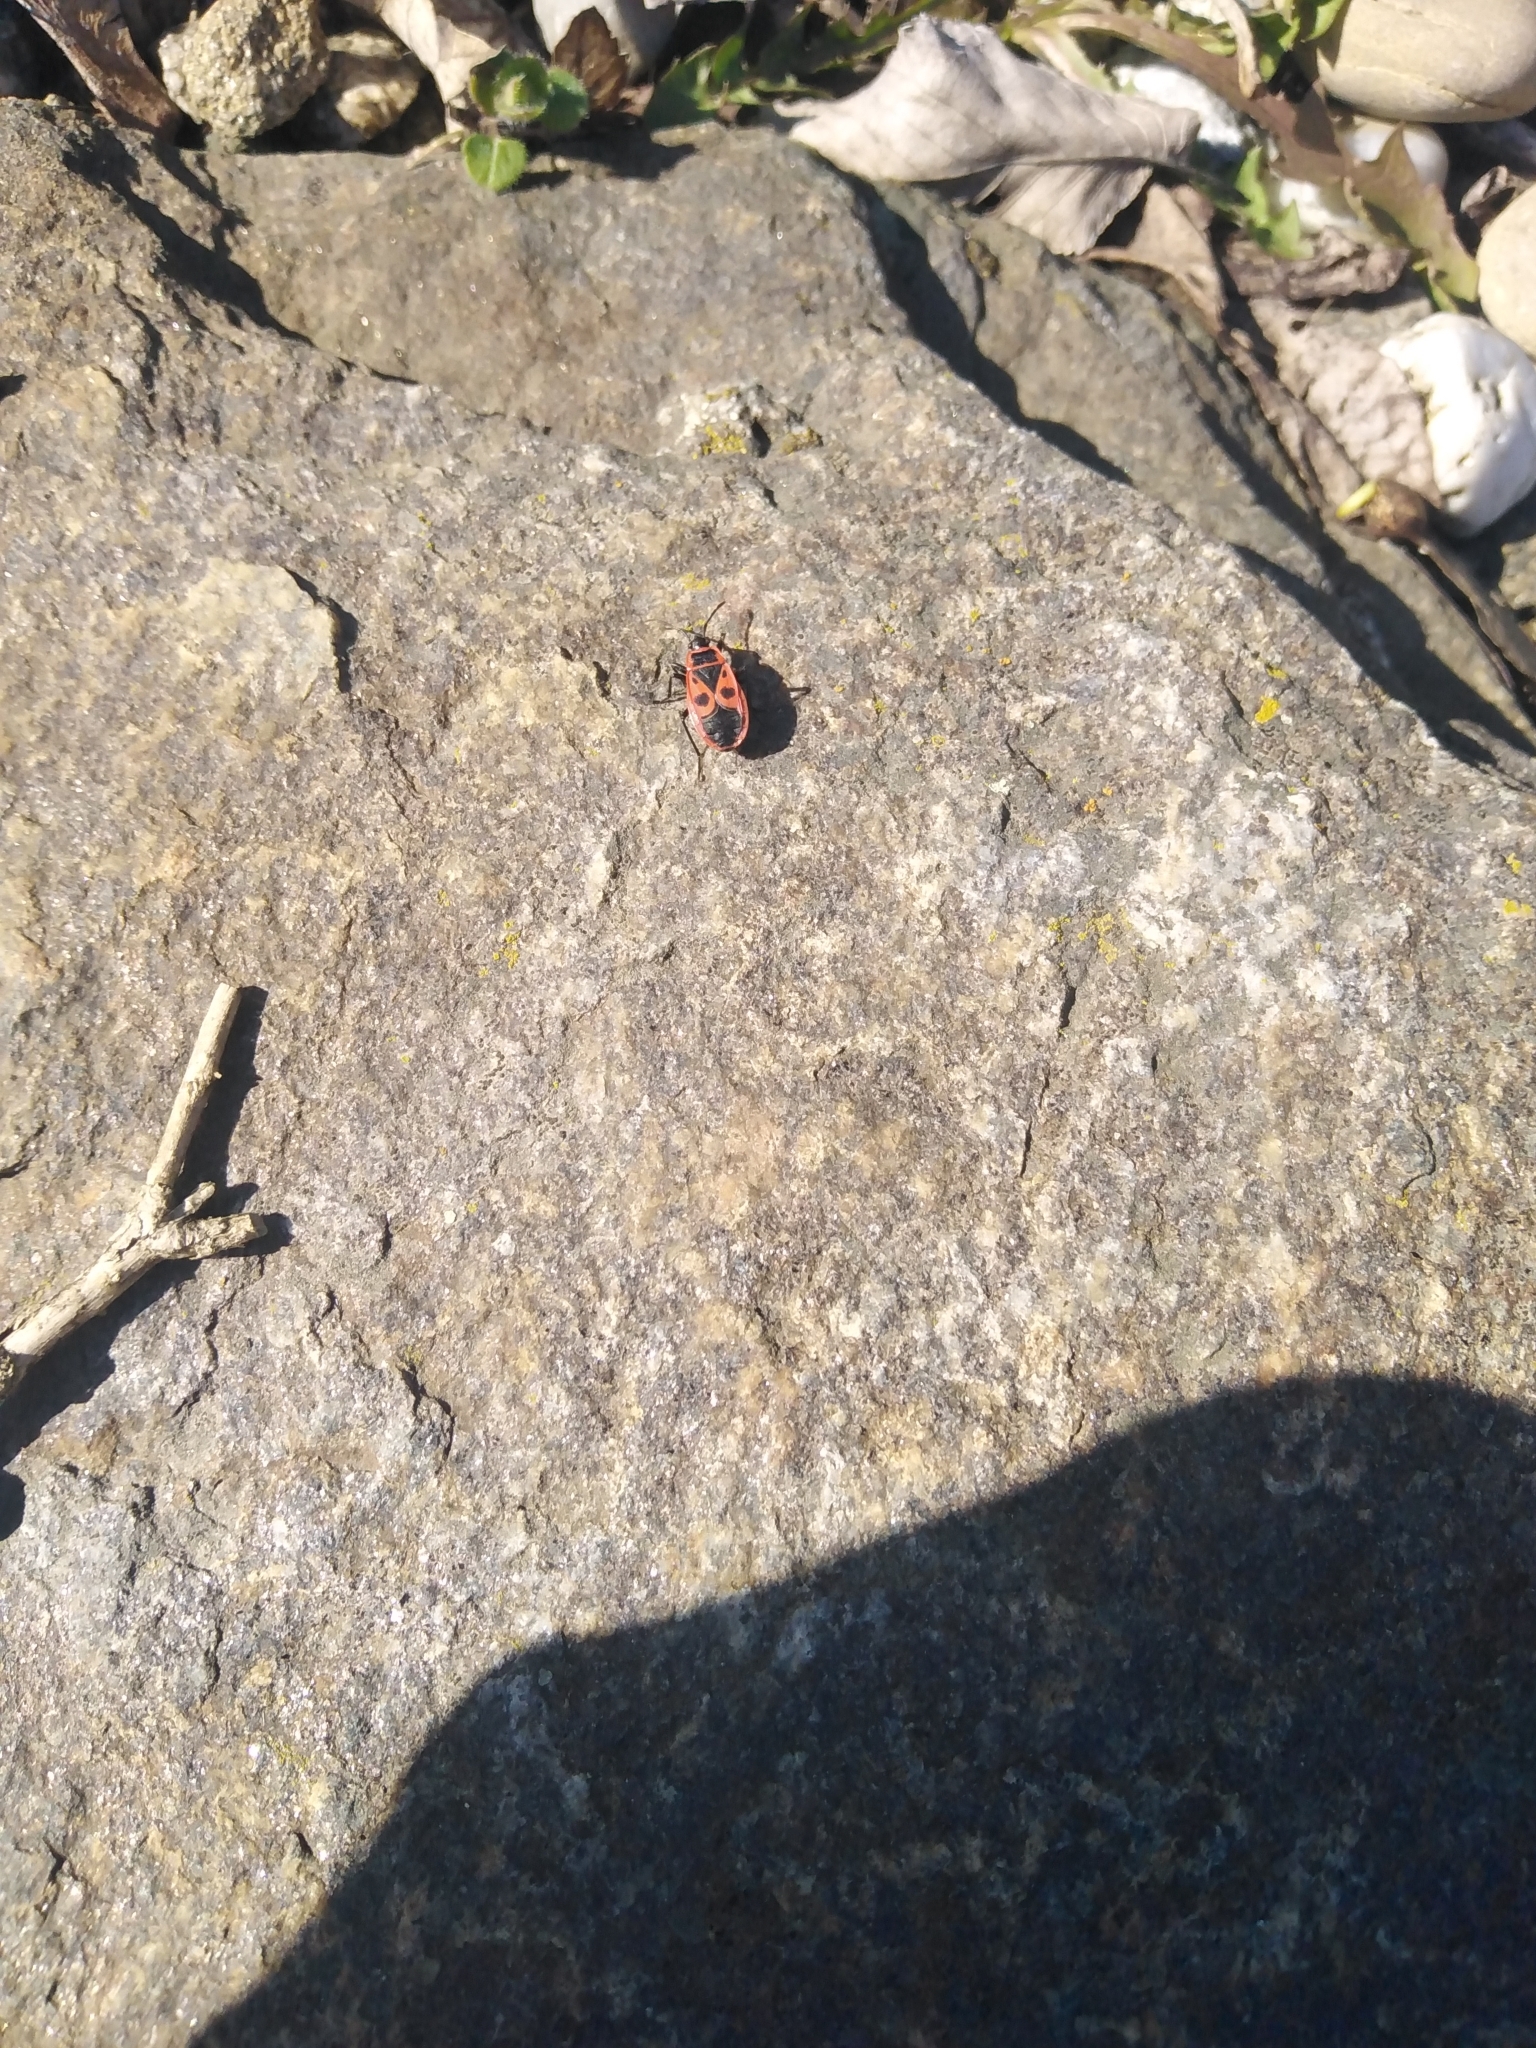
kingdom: Animalia
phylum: Arthropoda
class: Insecta
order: Hemiptera
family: Pyrrhocoridae
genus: Pyrrhocoris
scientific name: Pyrrhocoris apterus
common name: Firebug
